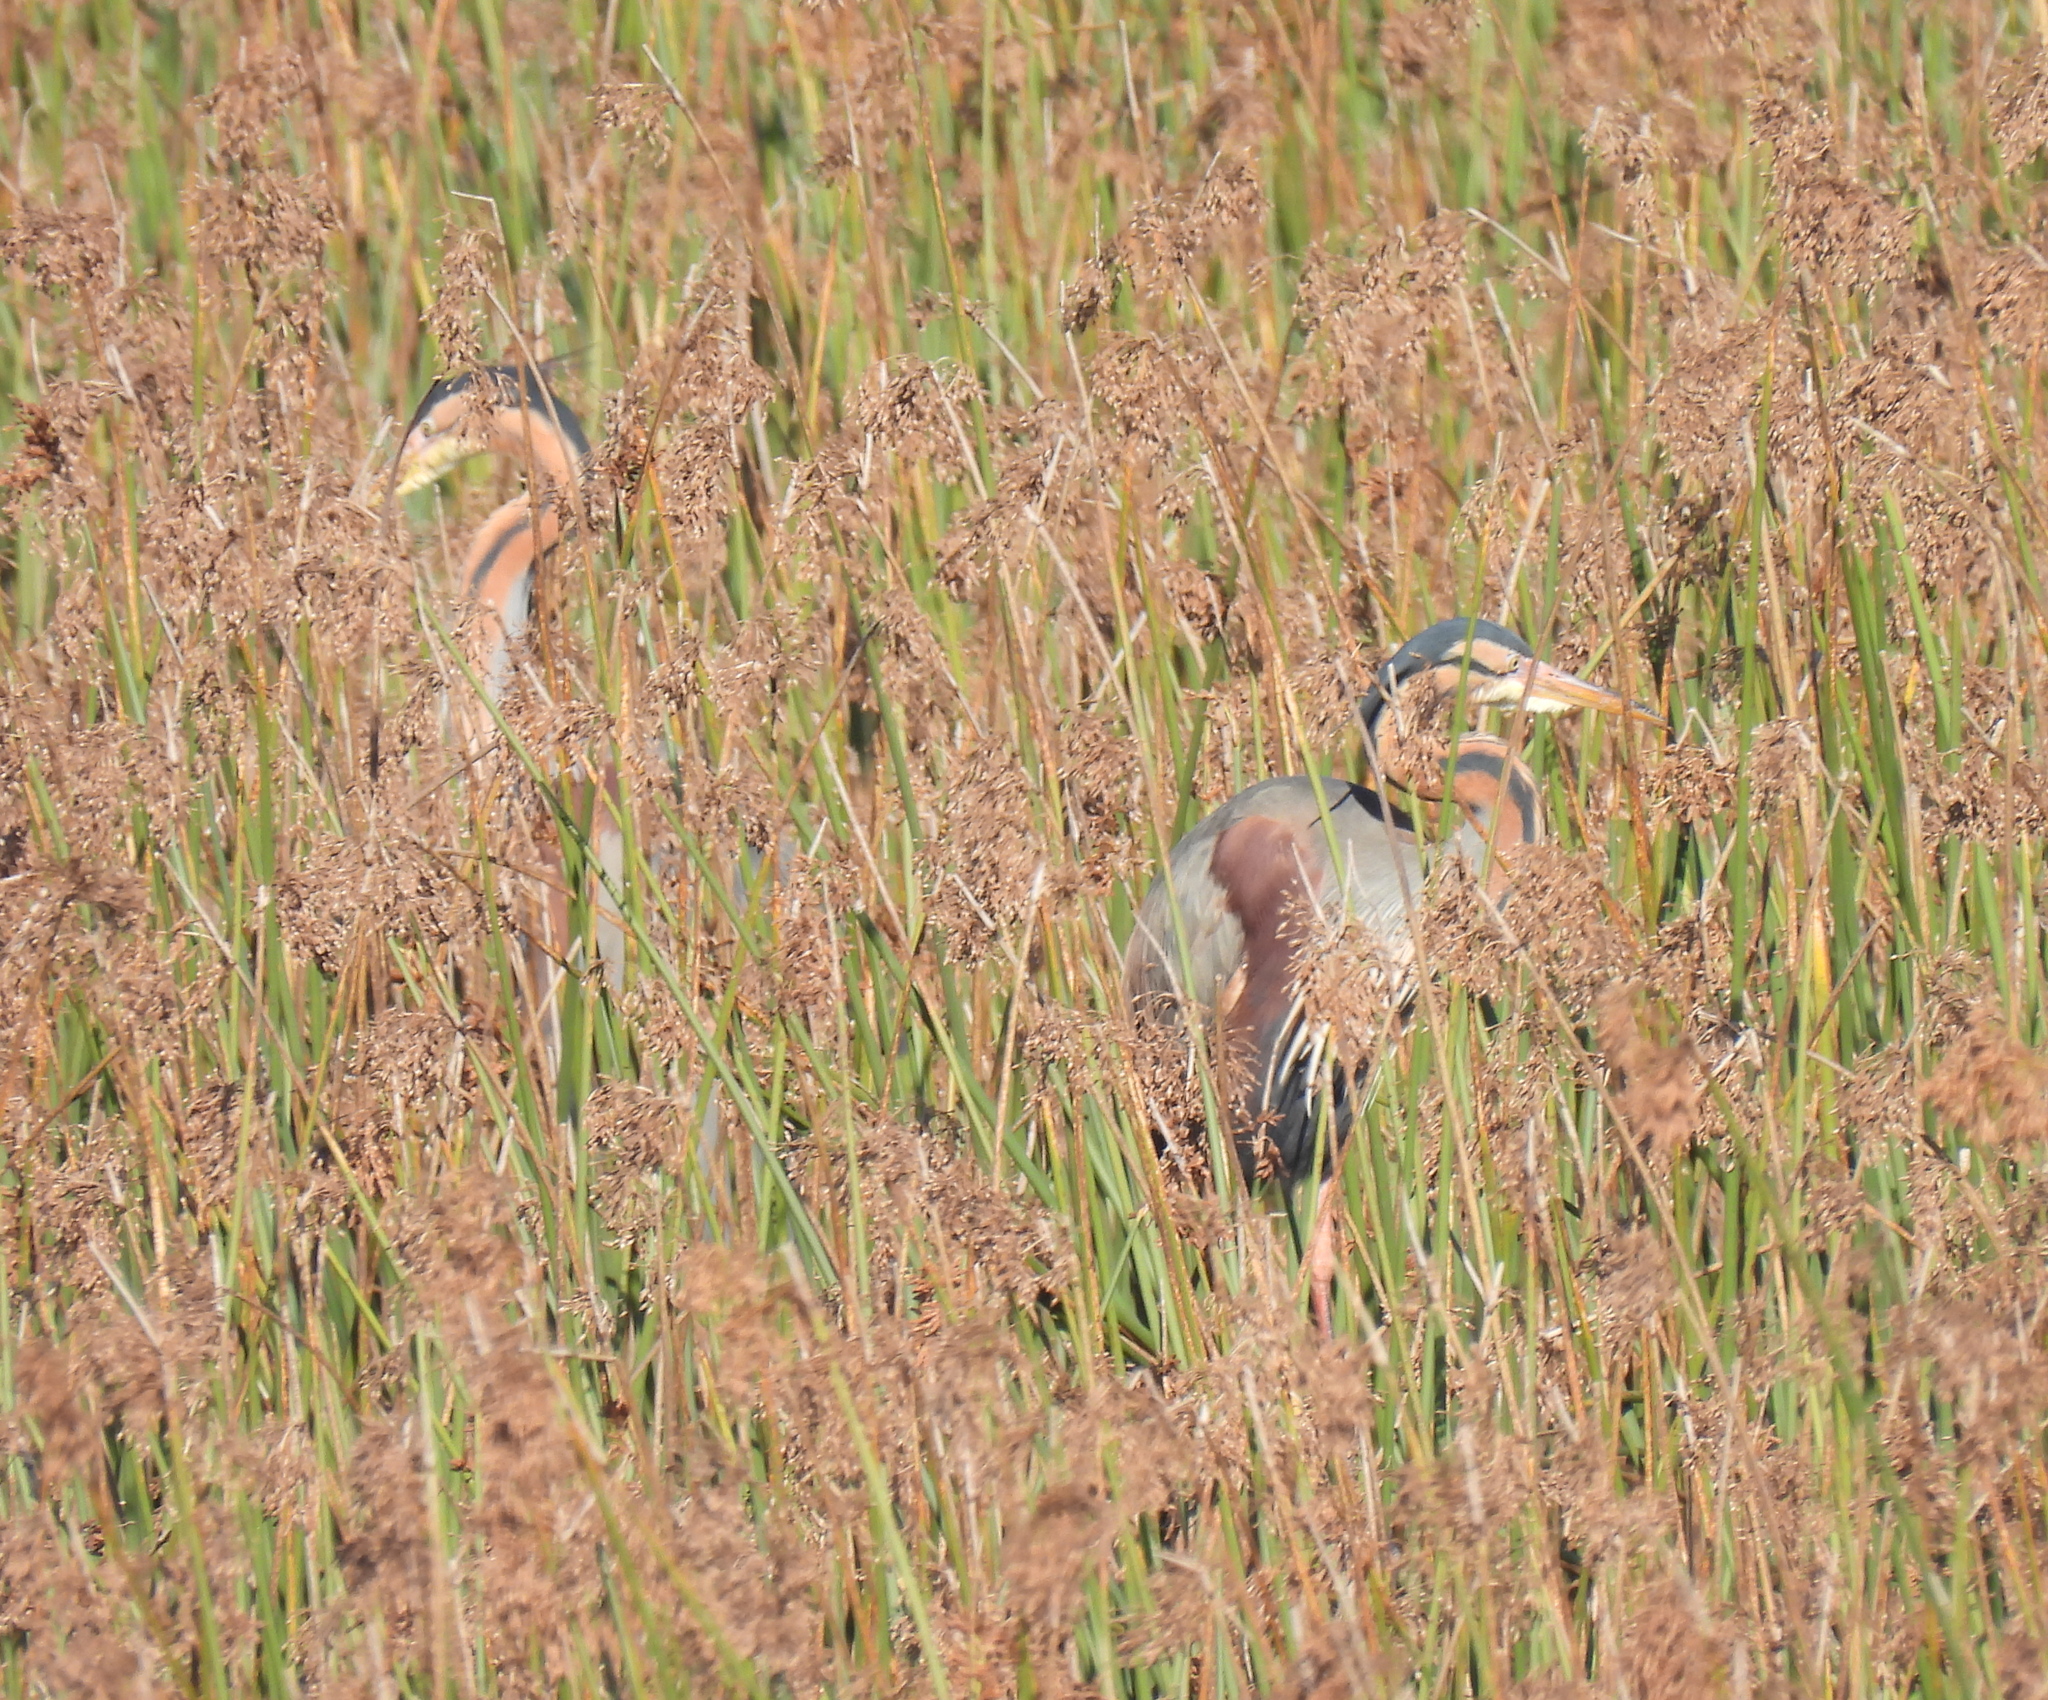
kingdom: Animalia
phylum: Chordata
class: Aves
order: Pelecaniformes
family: Ardeidae
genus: Ardea
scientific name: Ardea purpurea
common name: Purple heron
